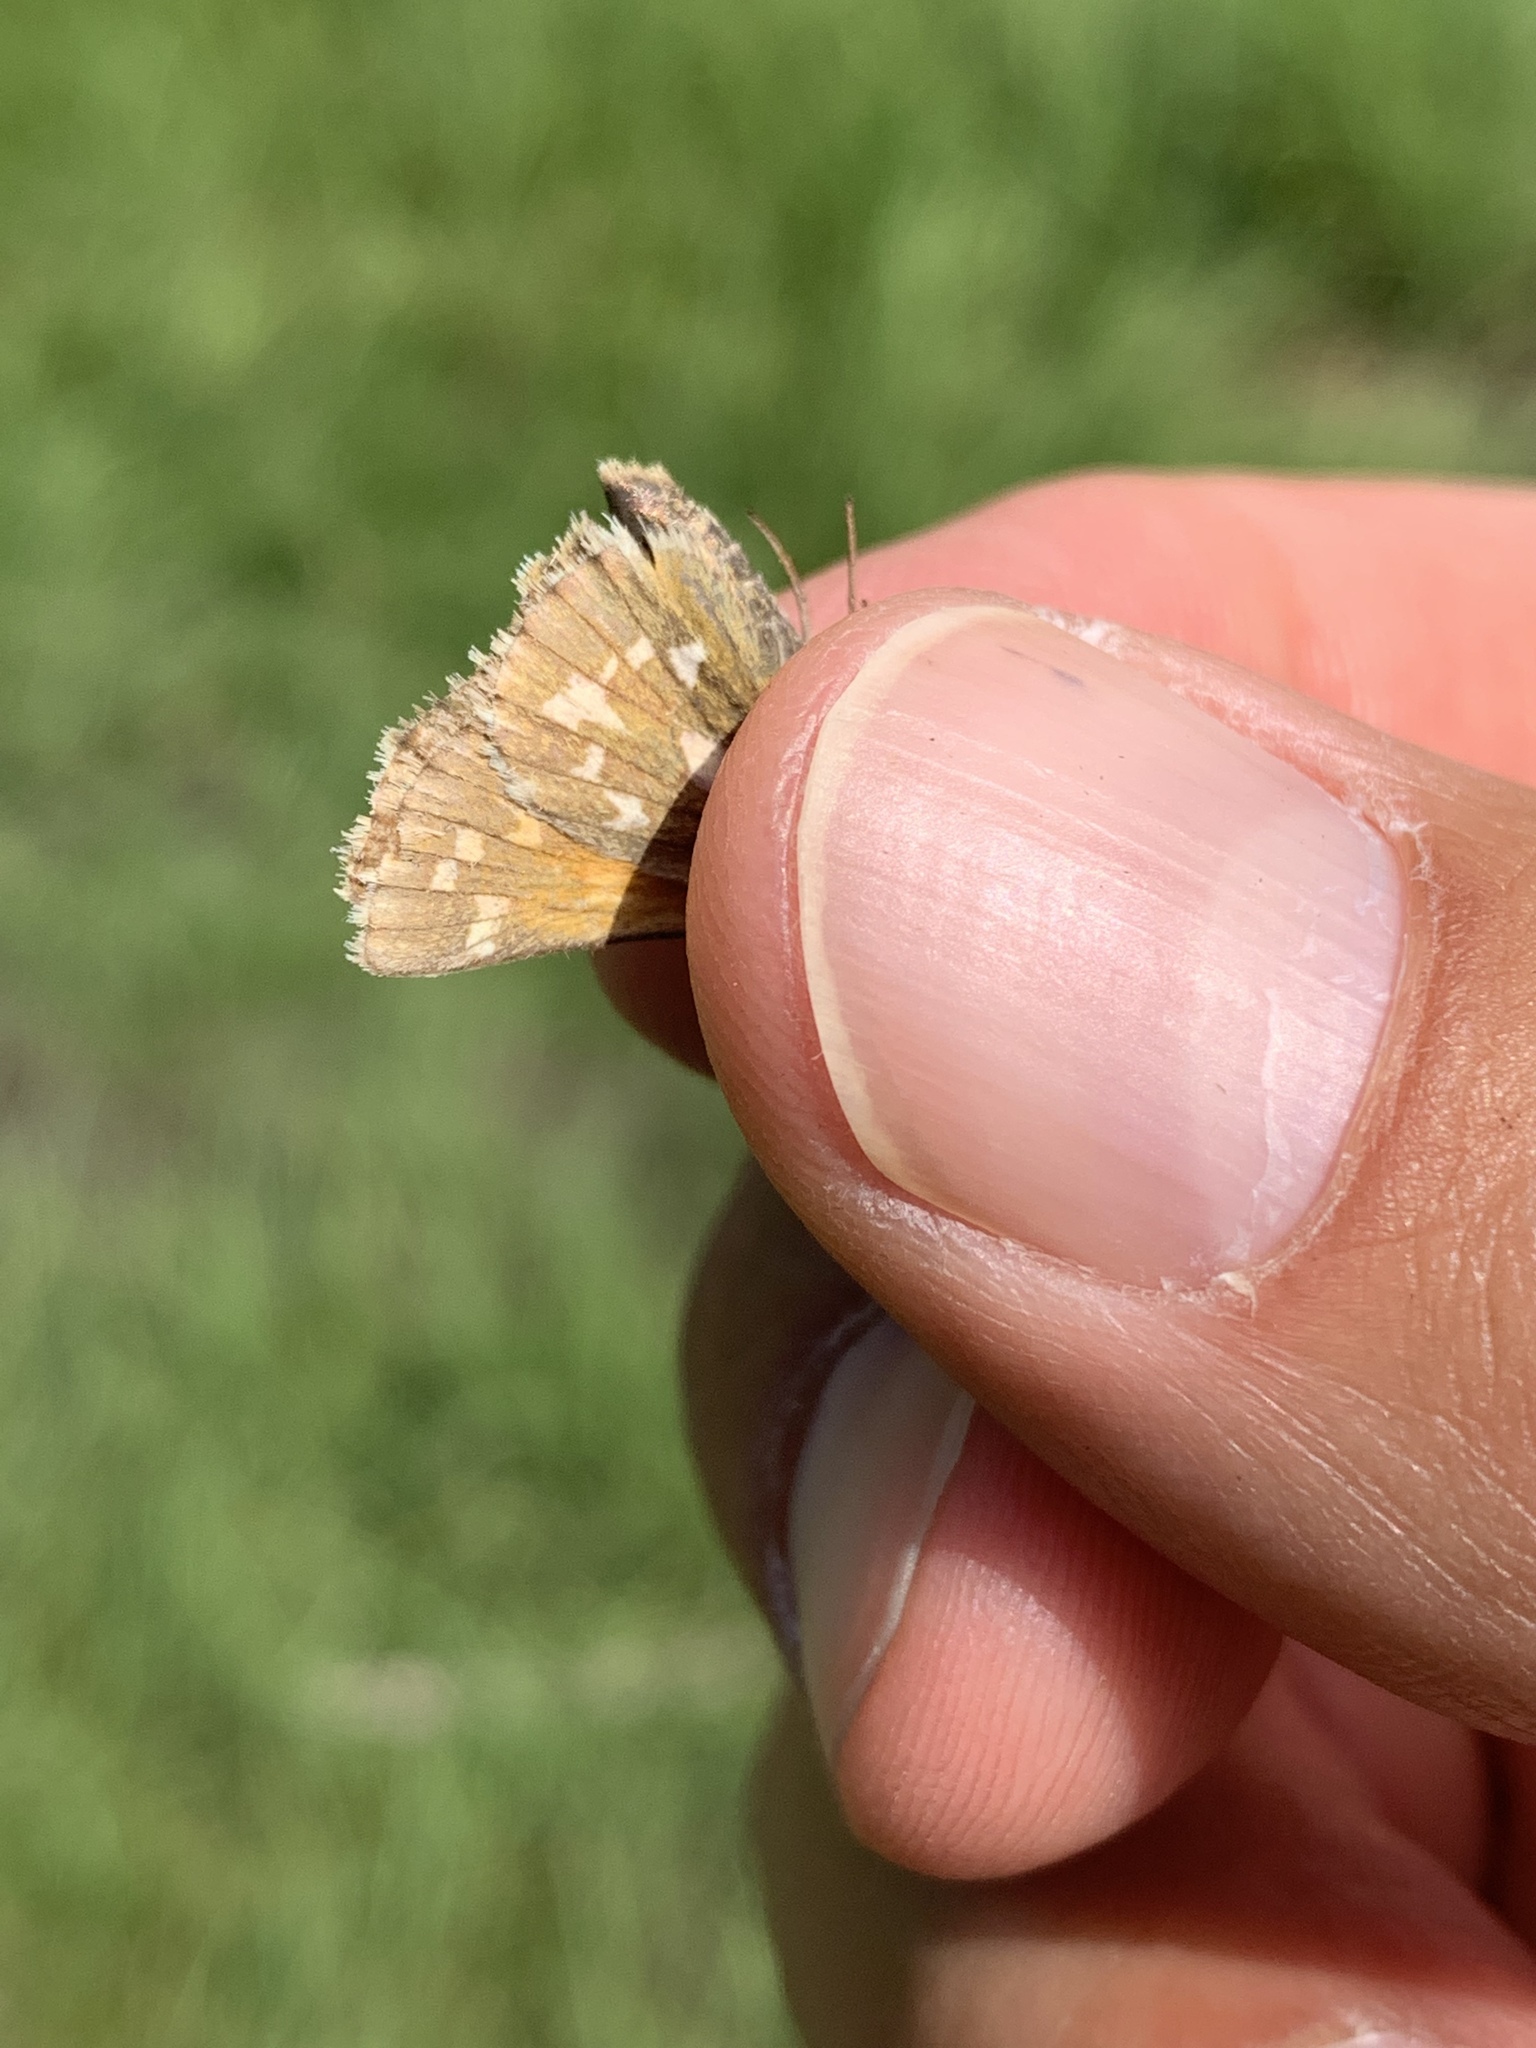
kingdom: Animalia
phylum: Arthropoda
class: Insecta
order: Lepidoptera
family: Hesperiidae
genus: Polites
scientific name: Polites sabuleti
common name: Sandhill skipper
